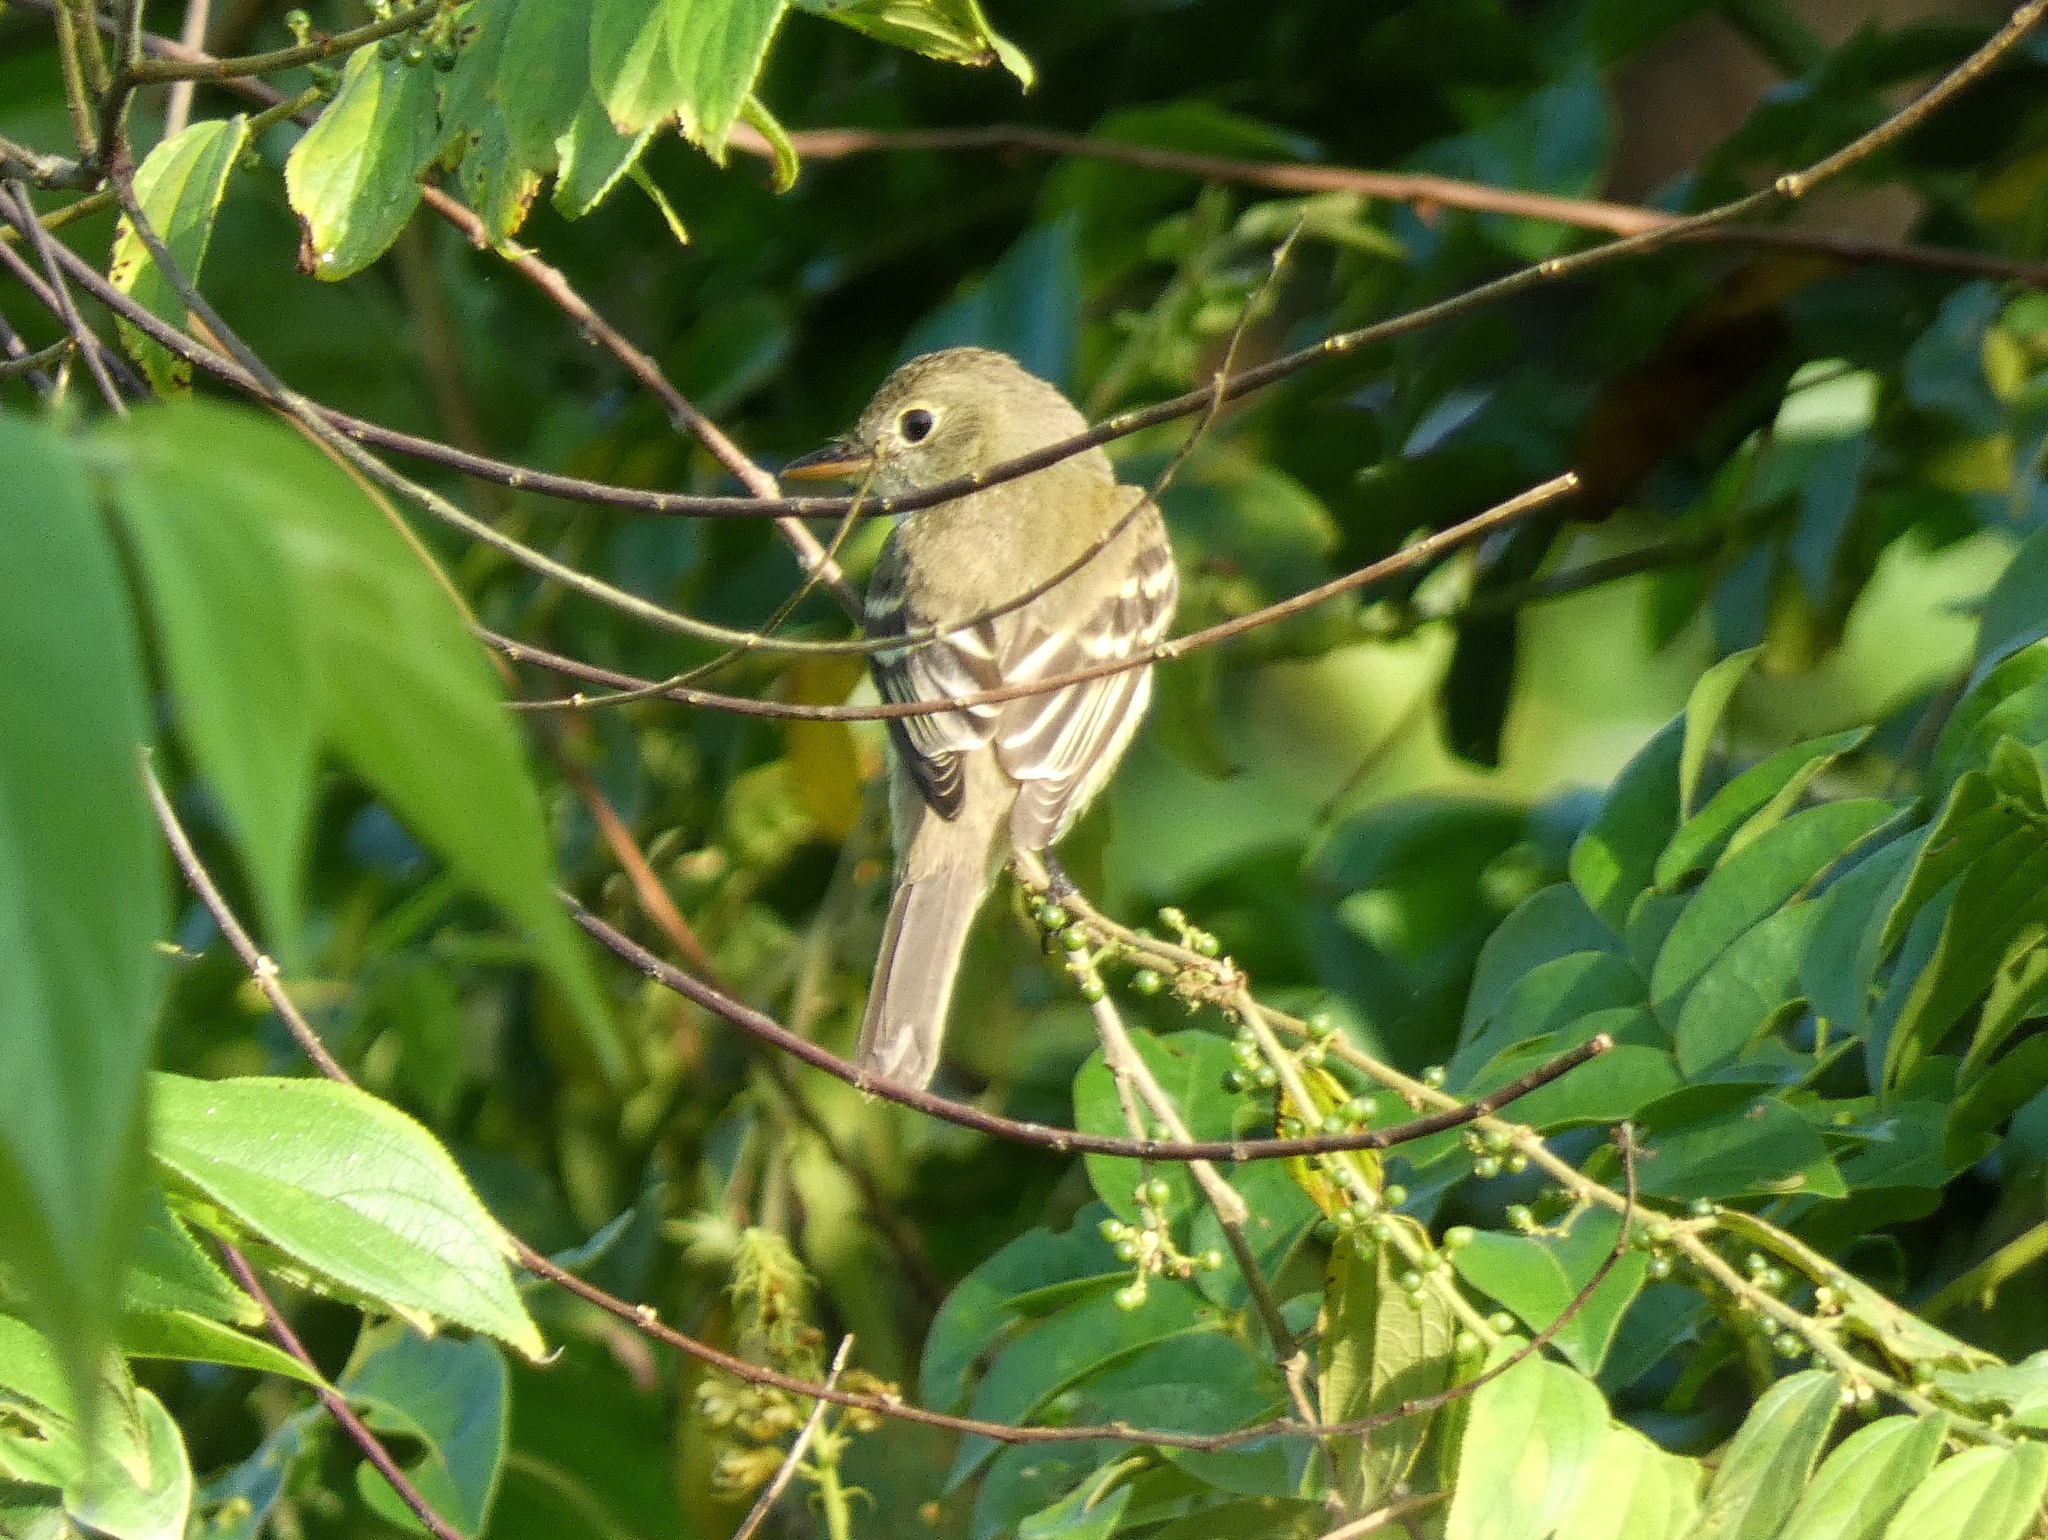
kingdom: Animalia
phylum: Chordata
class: Aves
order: Passeriformes
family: Tyrannidae
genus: Empidonax
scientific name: Empidonax alnorum
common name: Alder flycatcher
